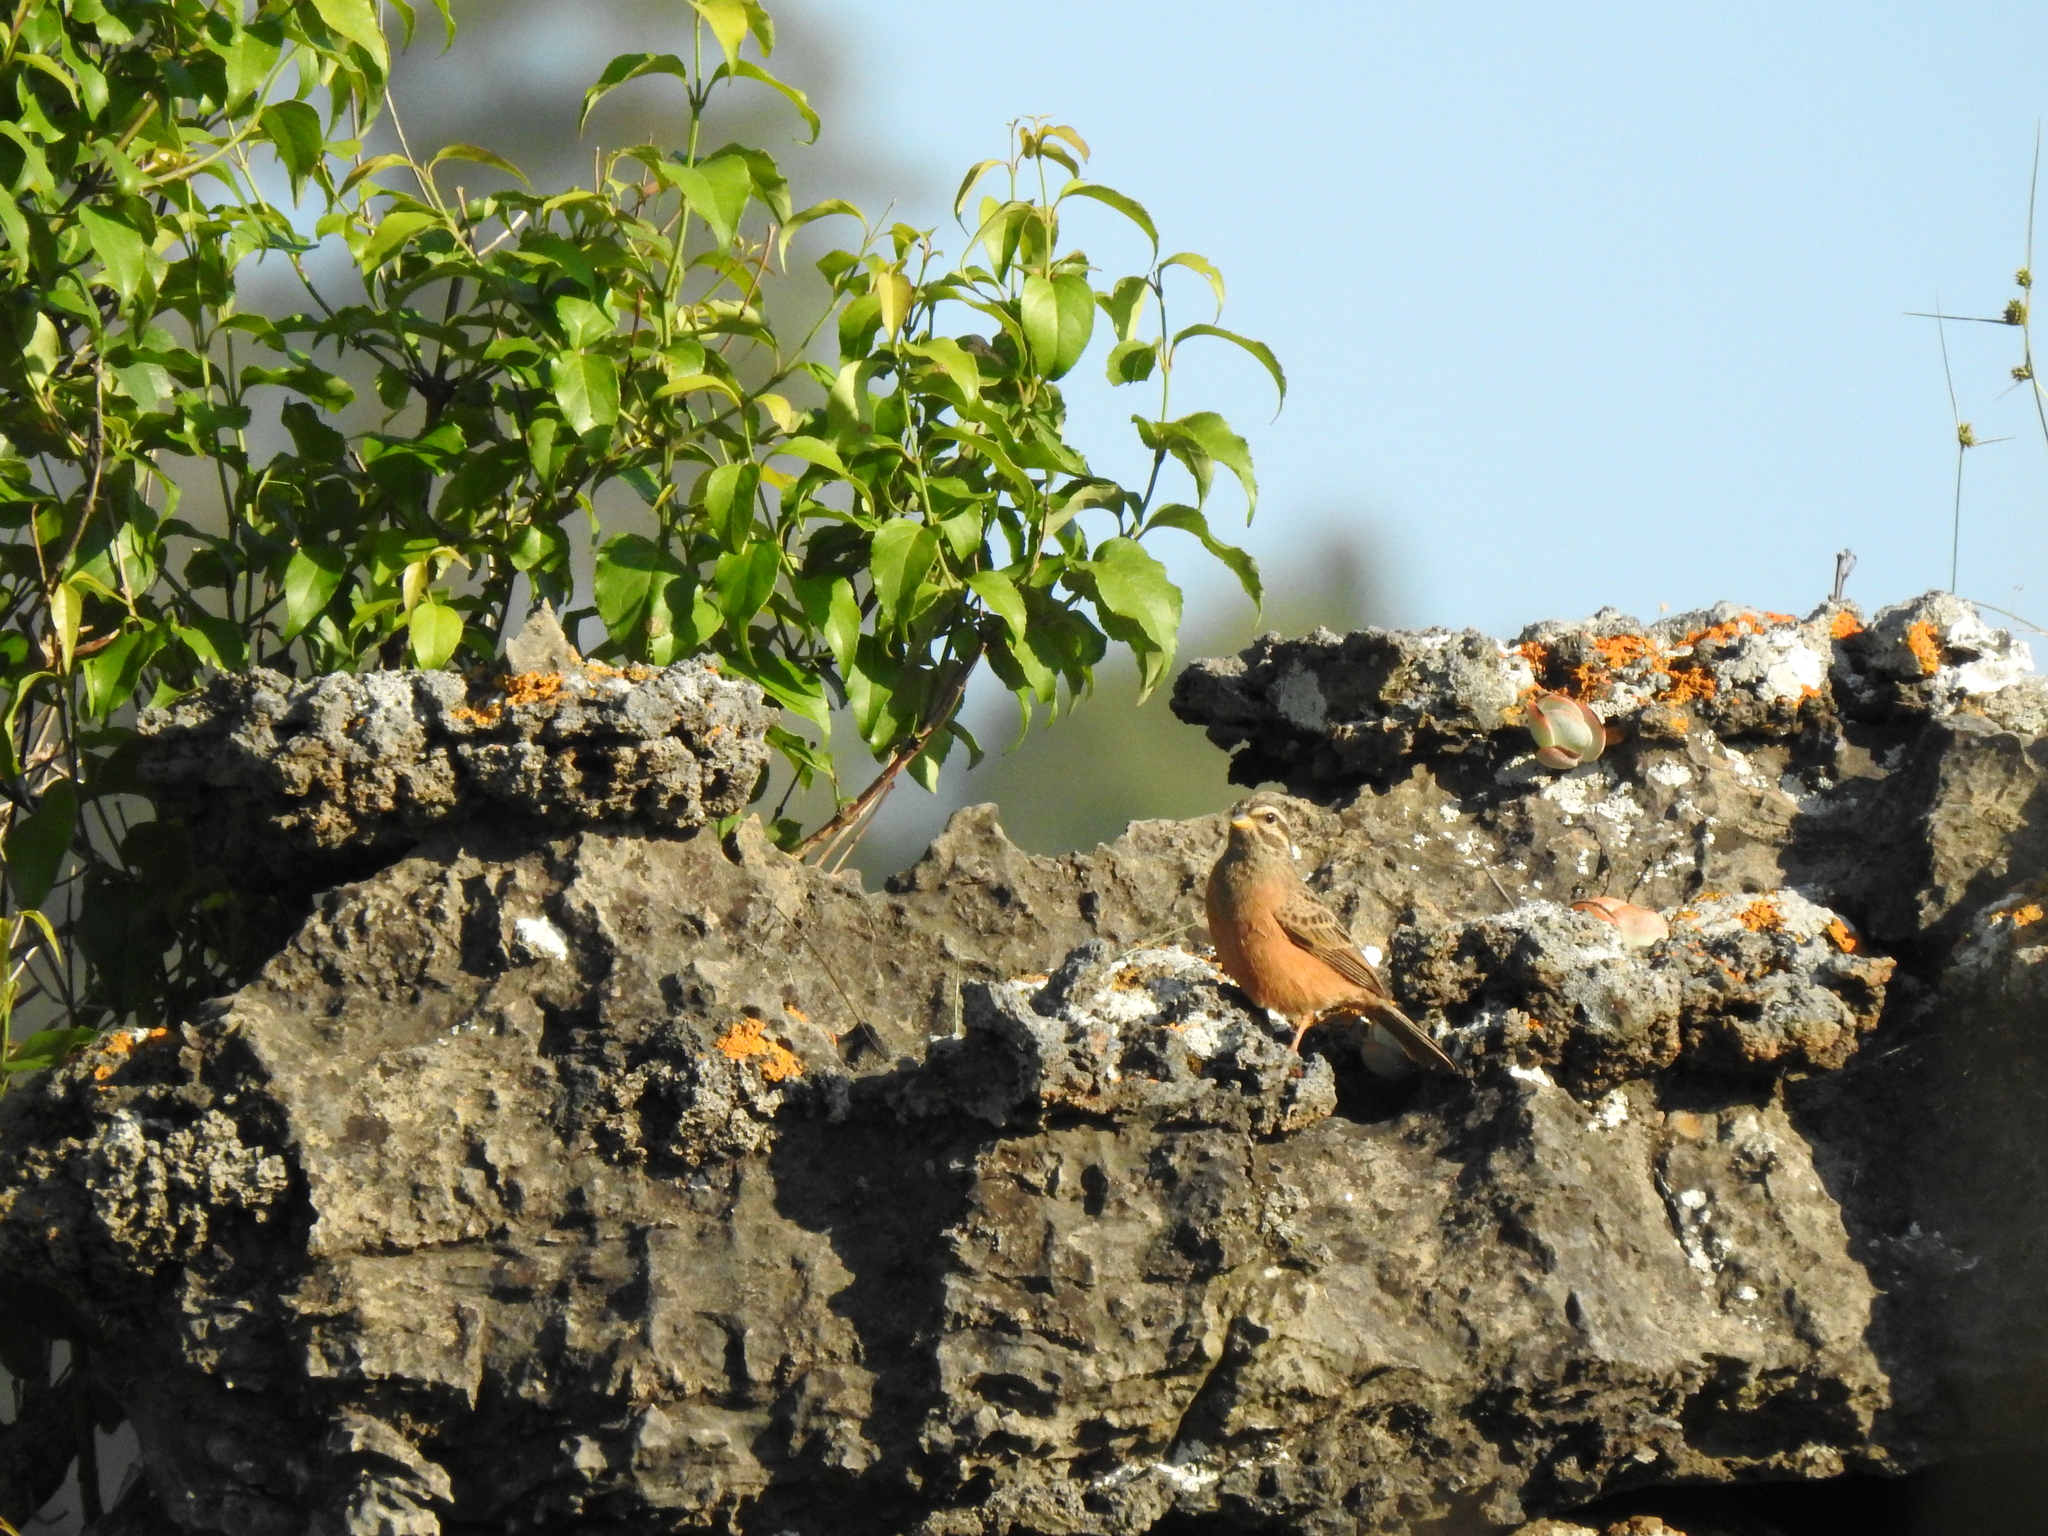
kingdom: Animalia
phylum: Chordata
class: Aves
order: Passeriformes
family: Emberizidae
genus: Emberiza
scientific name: Emberiza tahapisi
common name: Cinnamon-breasted bunting
